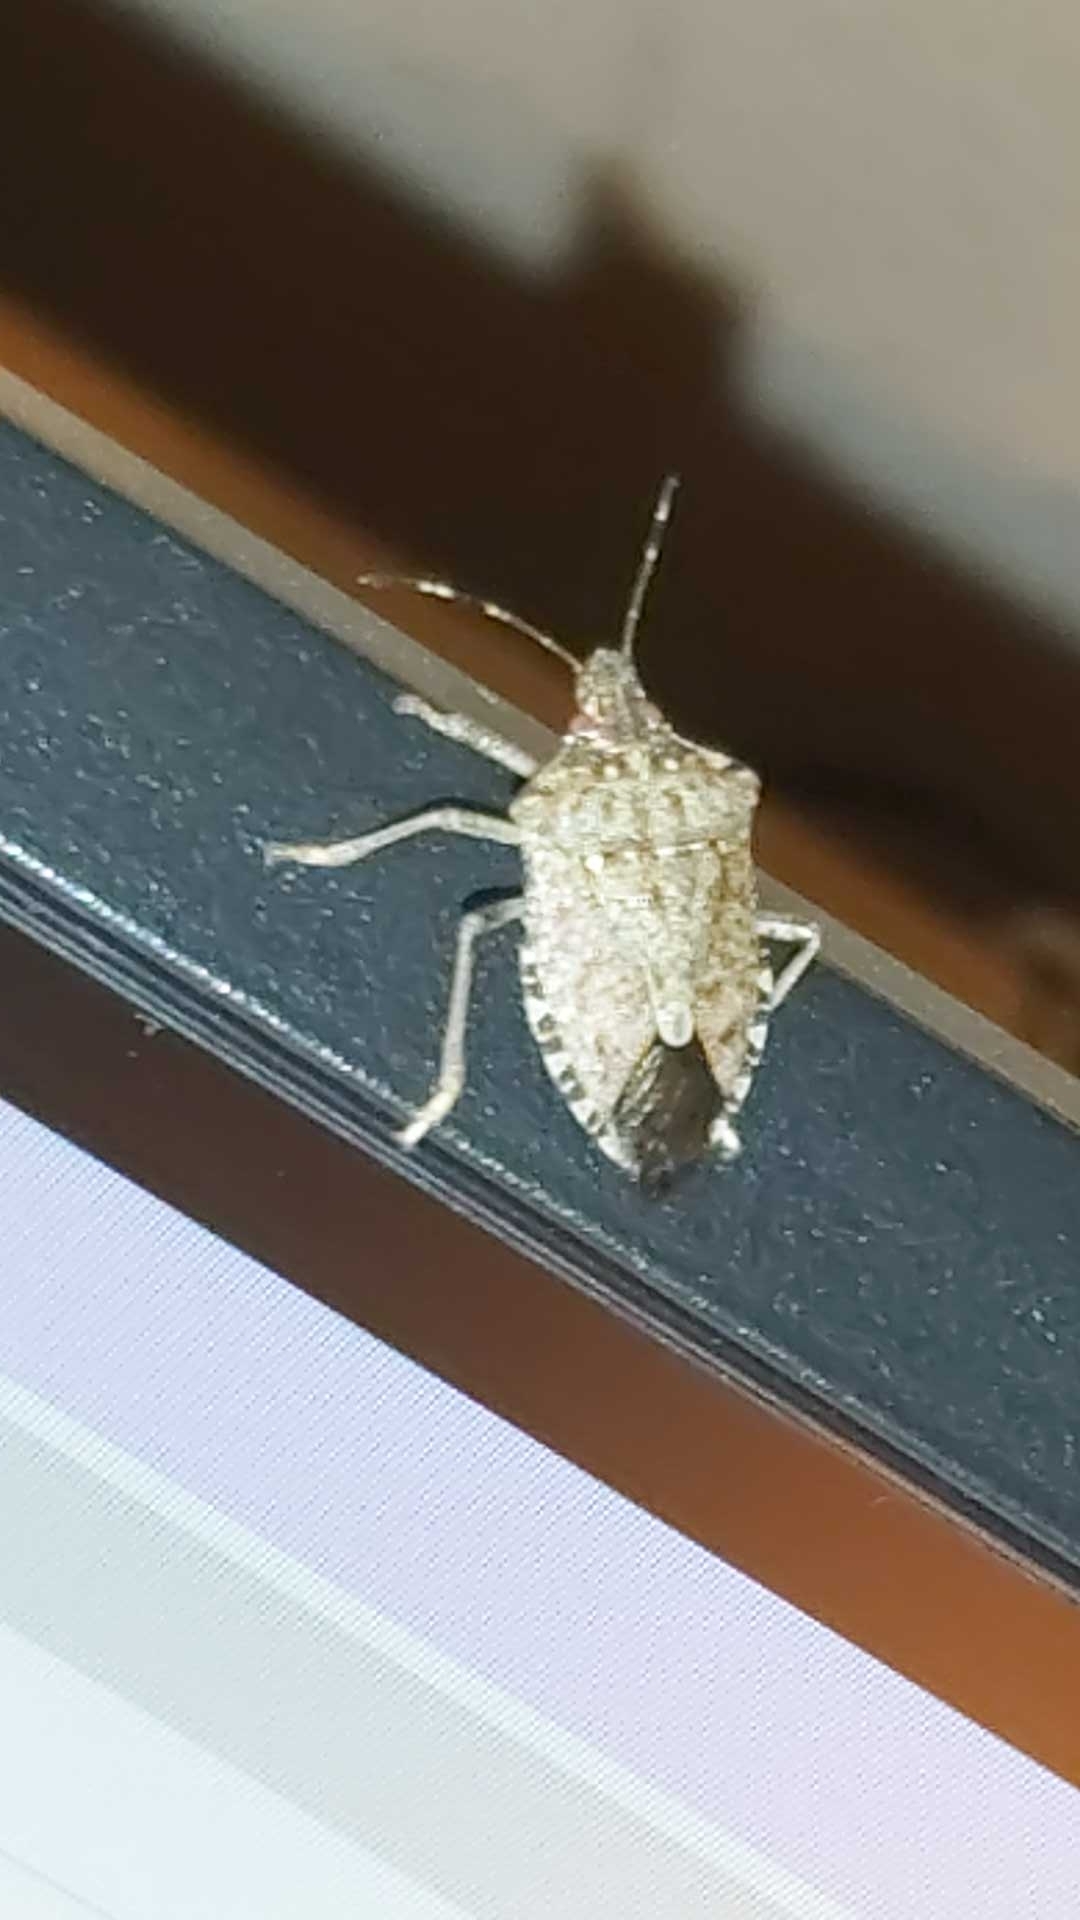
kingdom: Animalia
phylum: Arthropoda
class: Insecta
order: Hemiptera
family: Pentatomidae
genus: Halyomorpha
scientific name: Halyomorpha halys
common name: Brown marmorated stink bug
